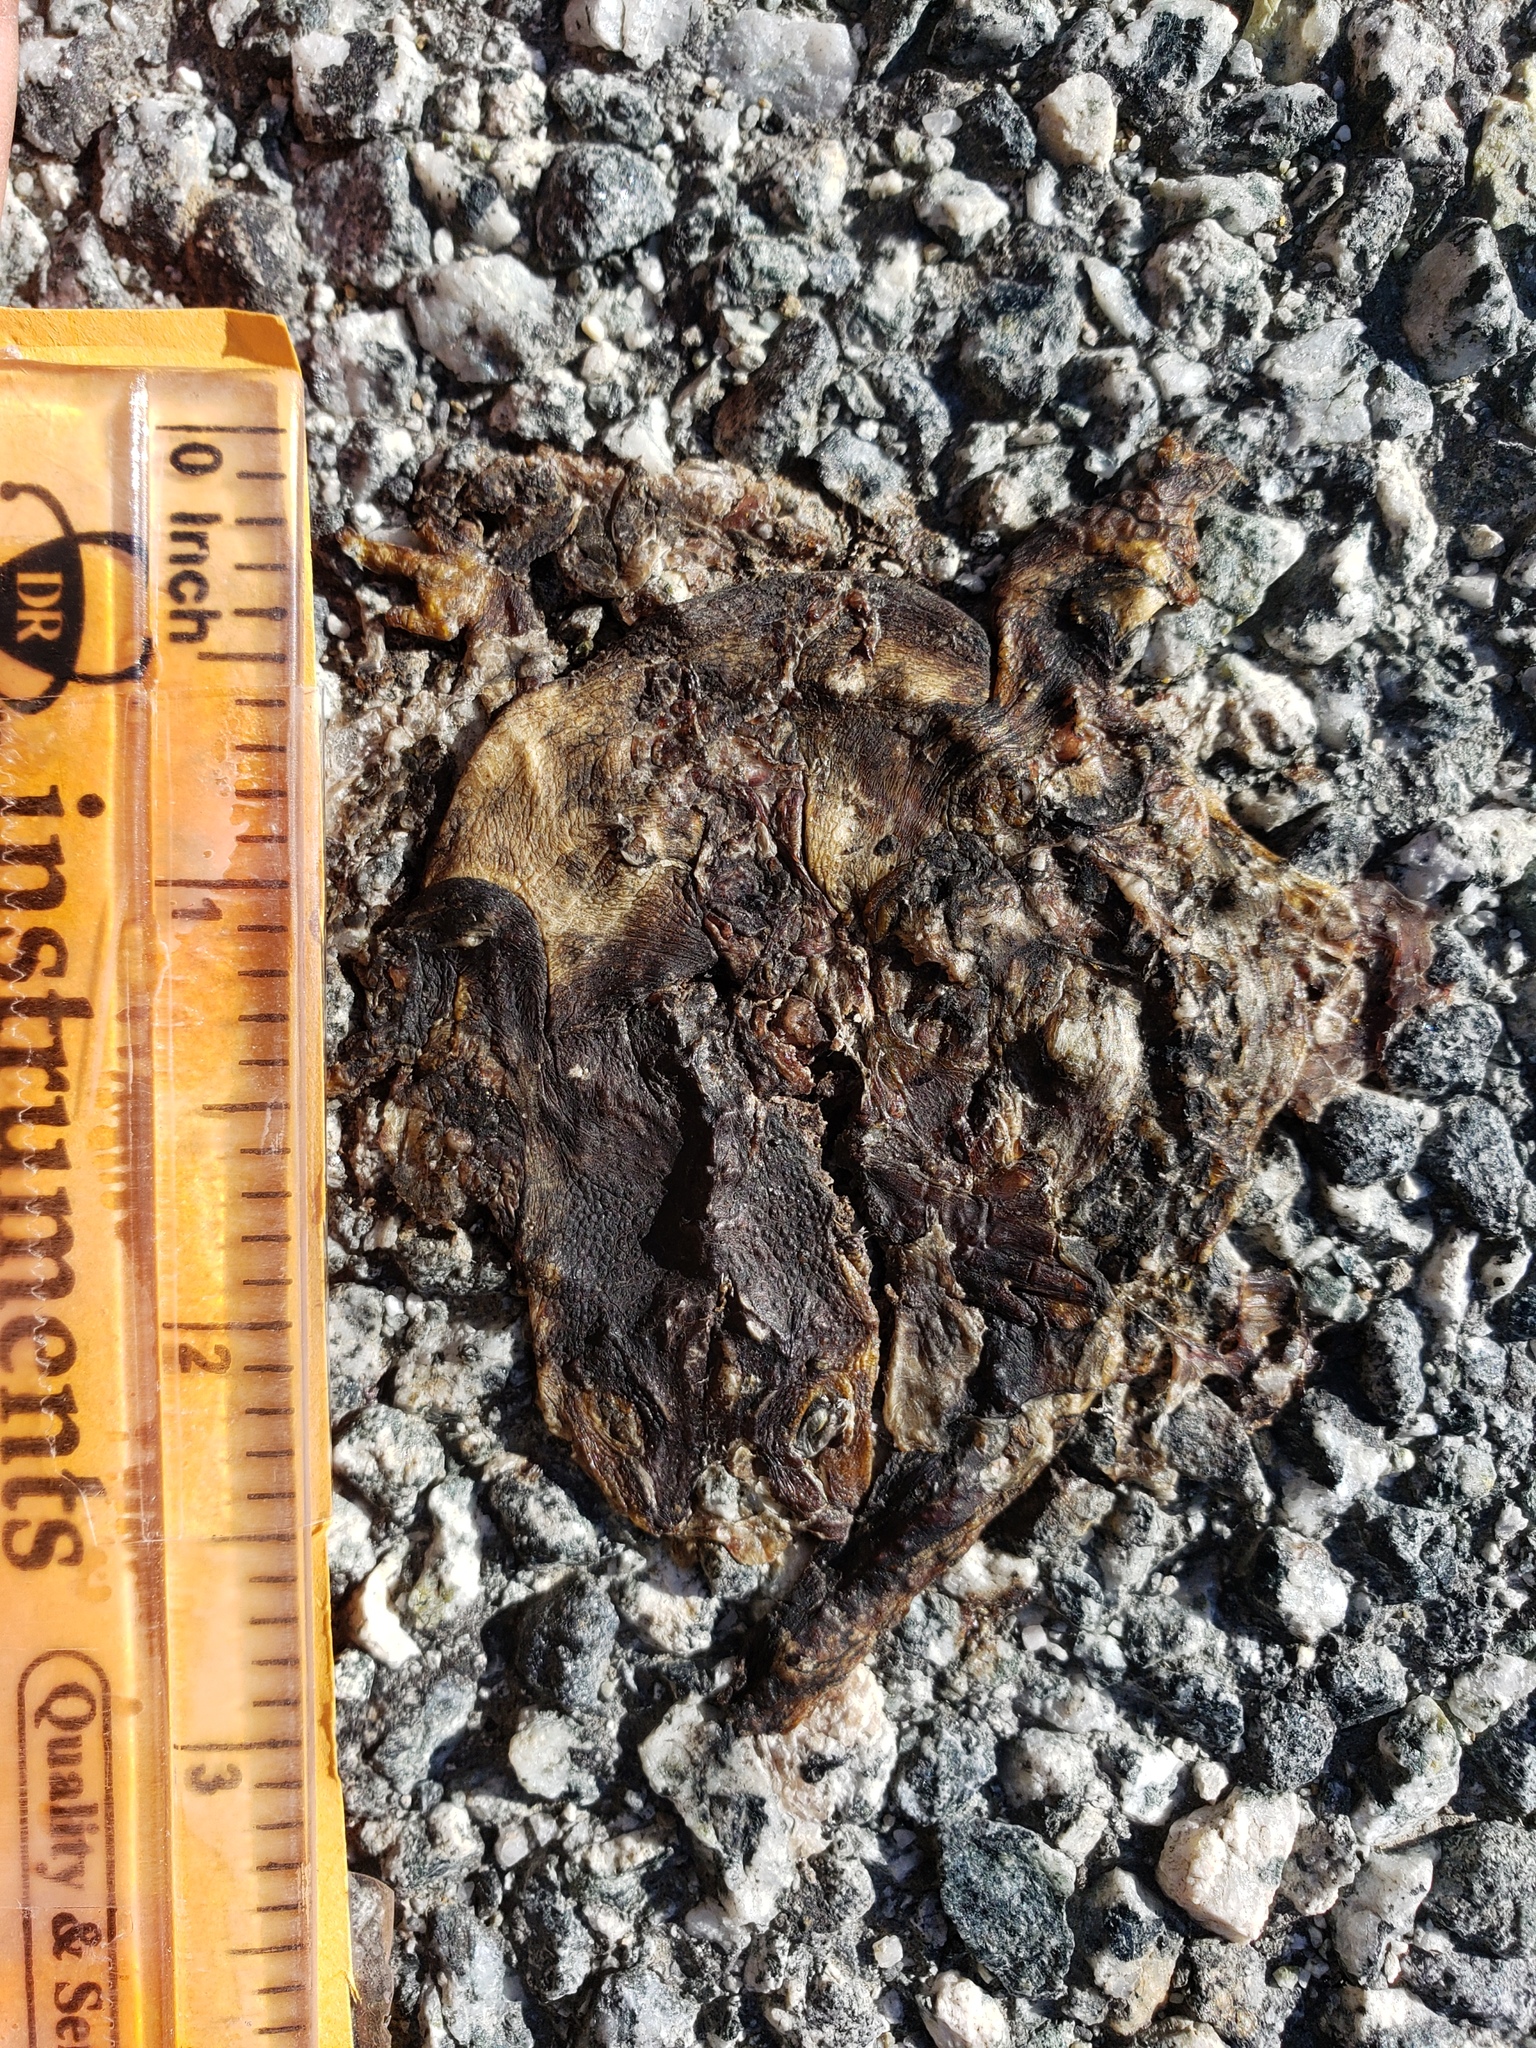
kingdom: Animalia
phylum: Chordata
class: Amphibia
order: Caudata
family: Salamandridae
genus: Taricha
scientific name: Taricha
